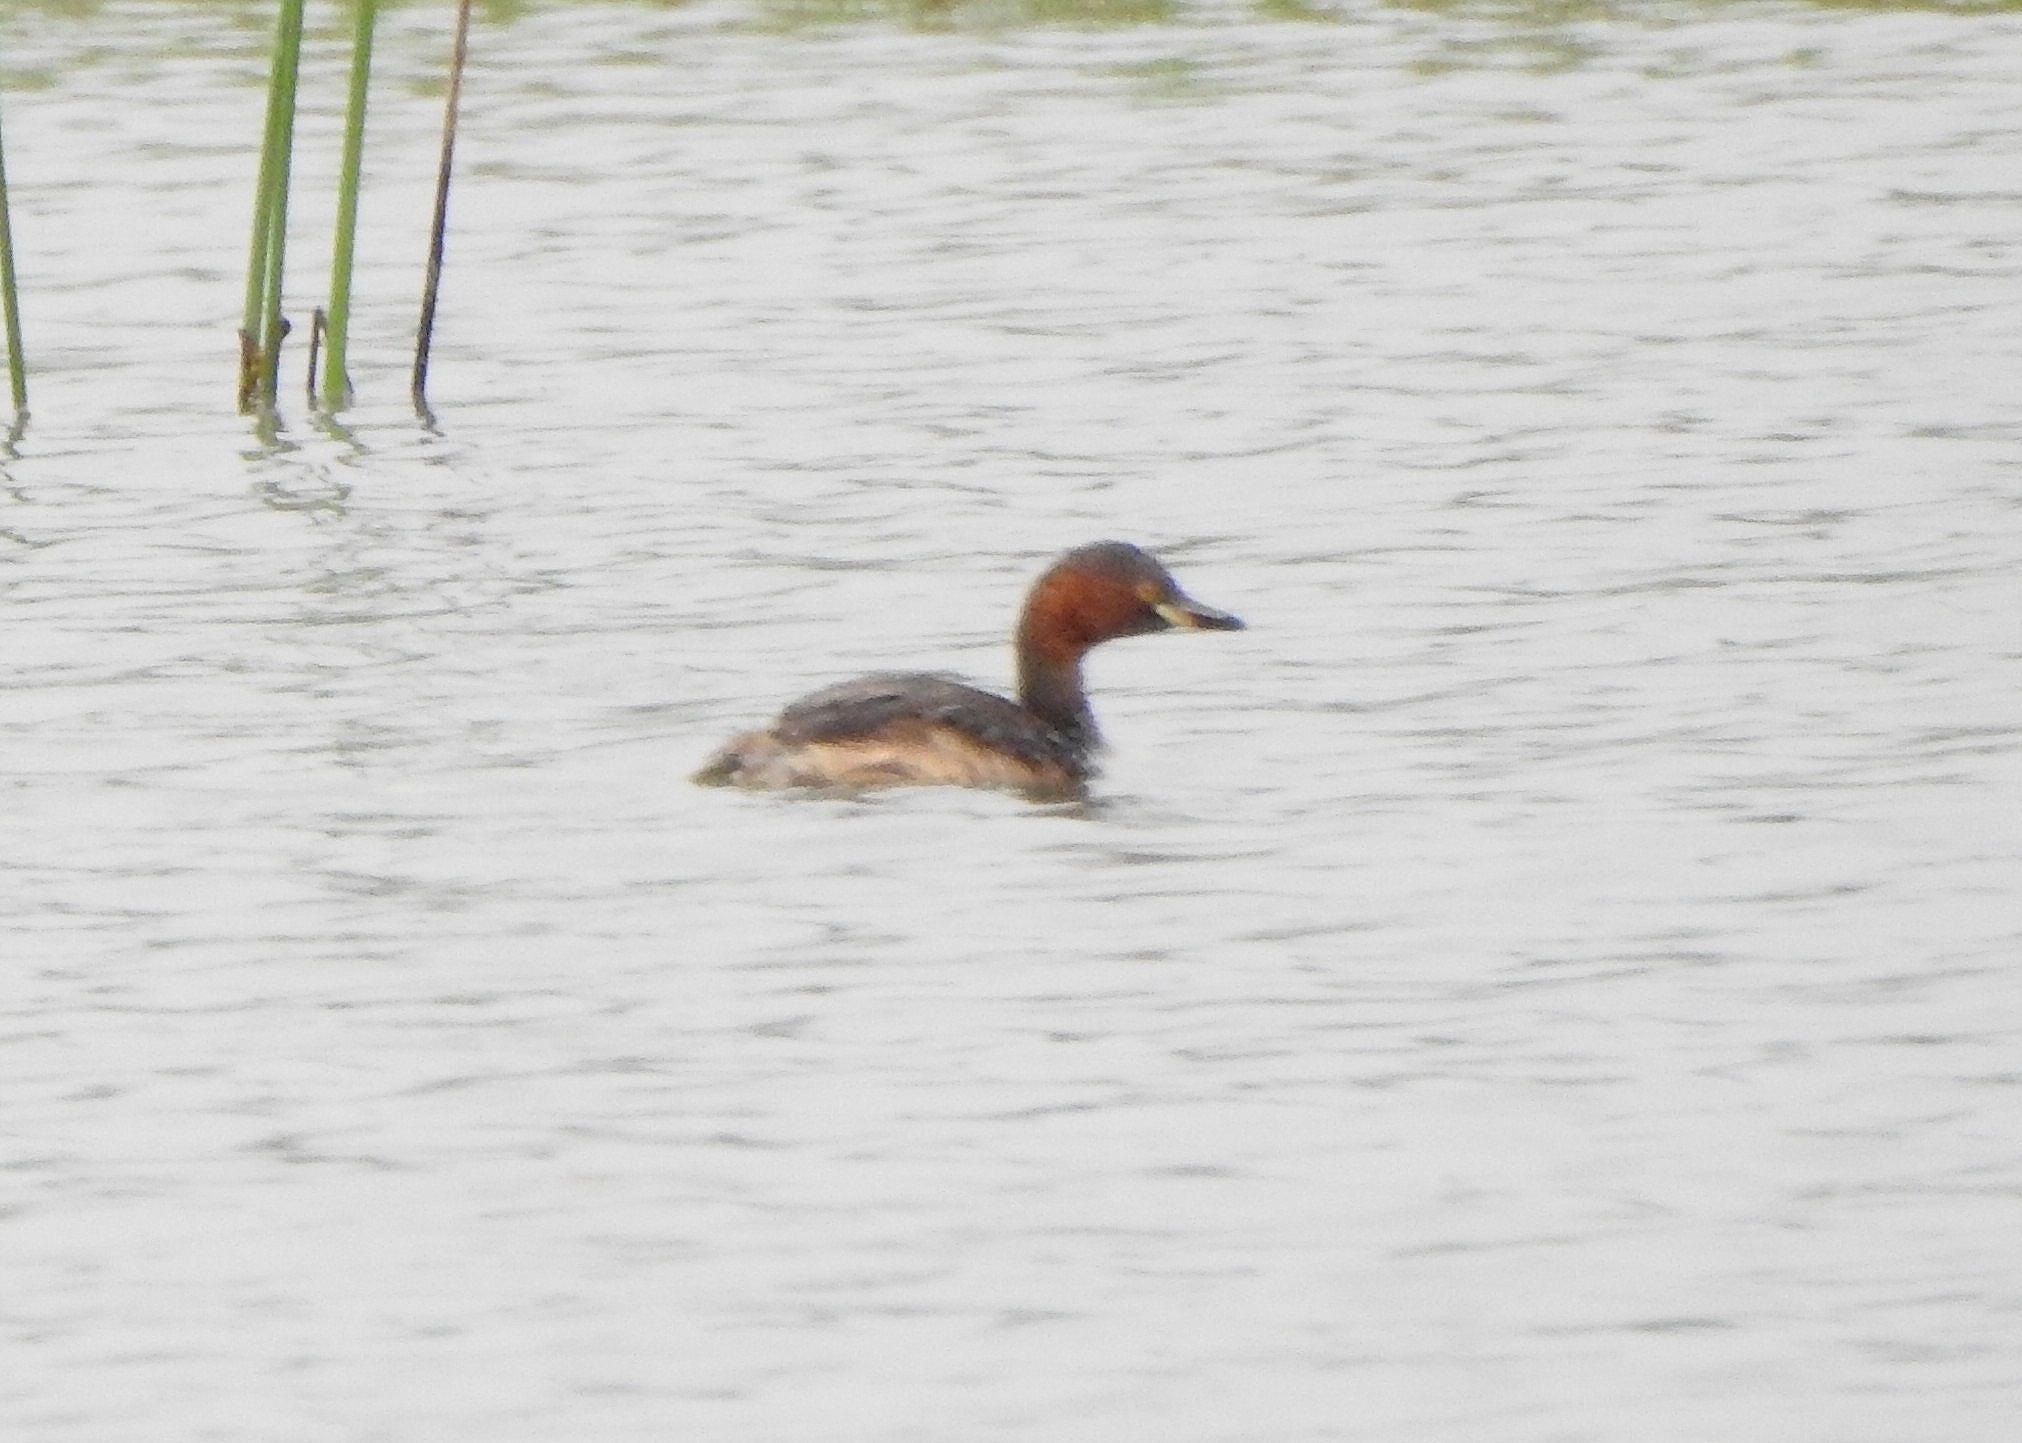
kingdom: Animalia
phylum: Chordata
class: Aves
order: Podicipediformes
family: Podicipedidae
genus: Tachybaptus
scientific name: Tachybaptus ruficollis
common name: Little grebe
